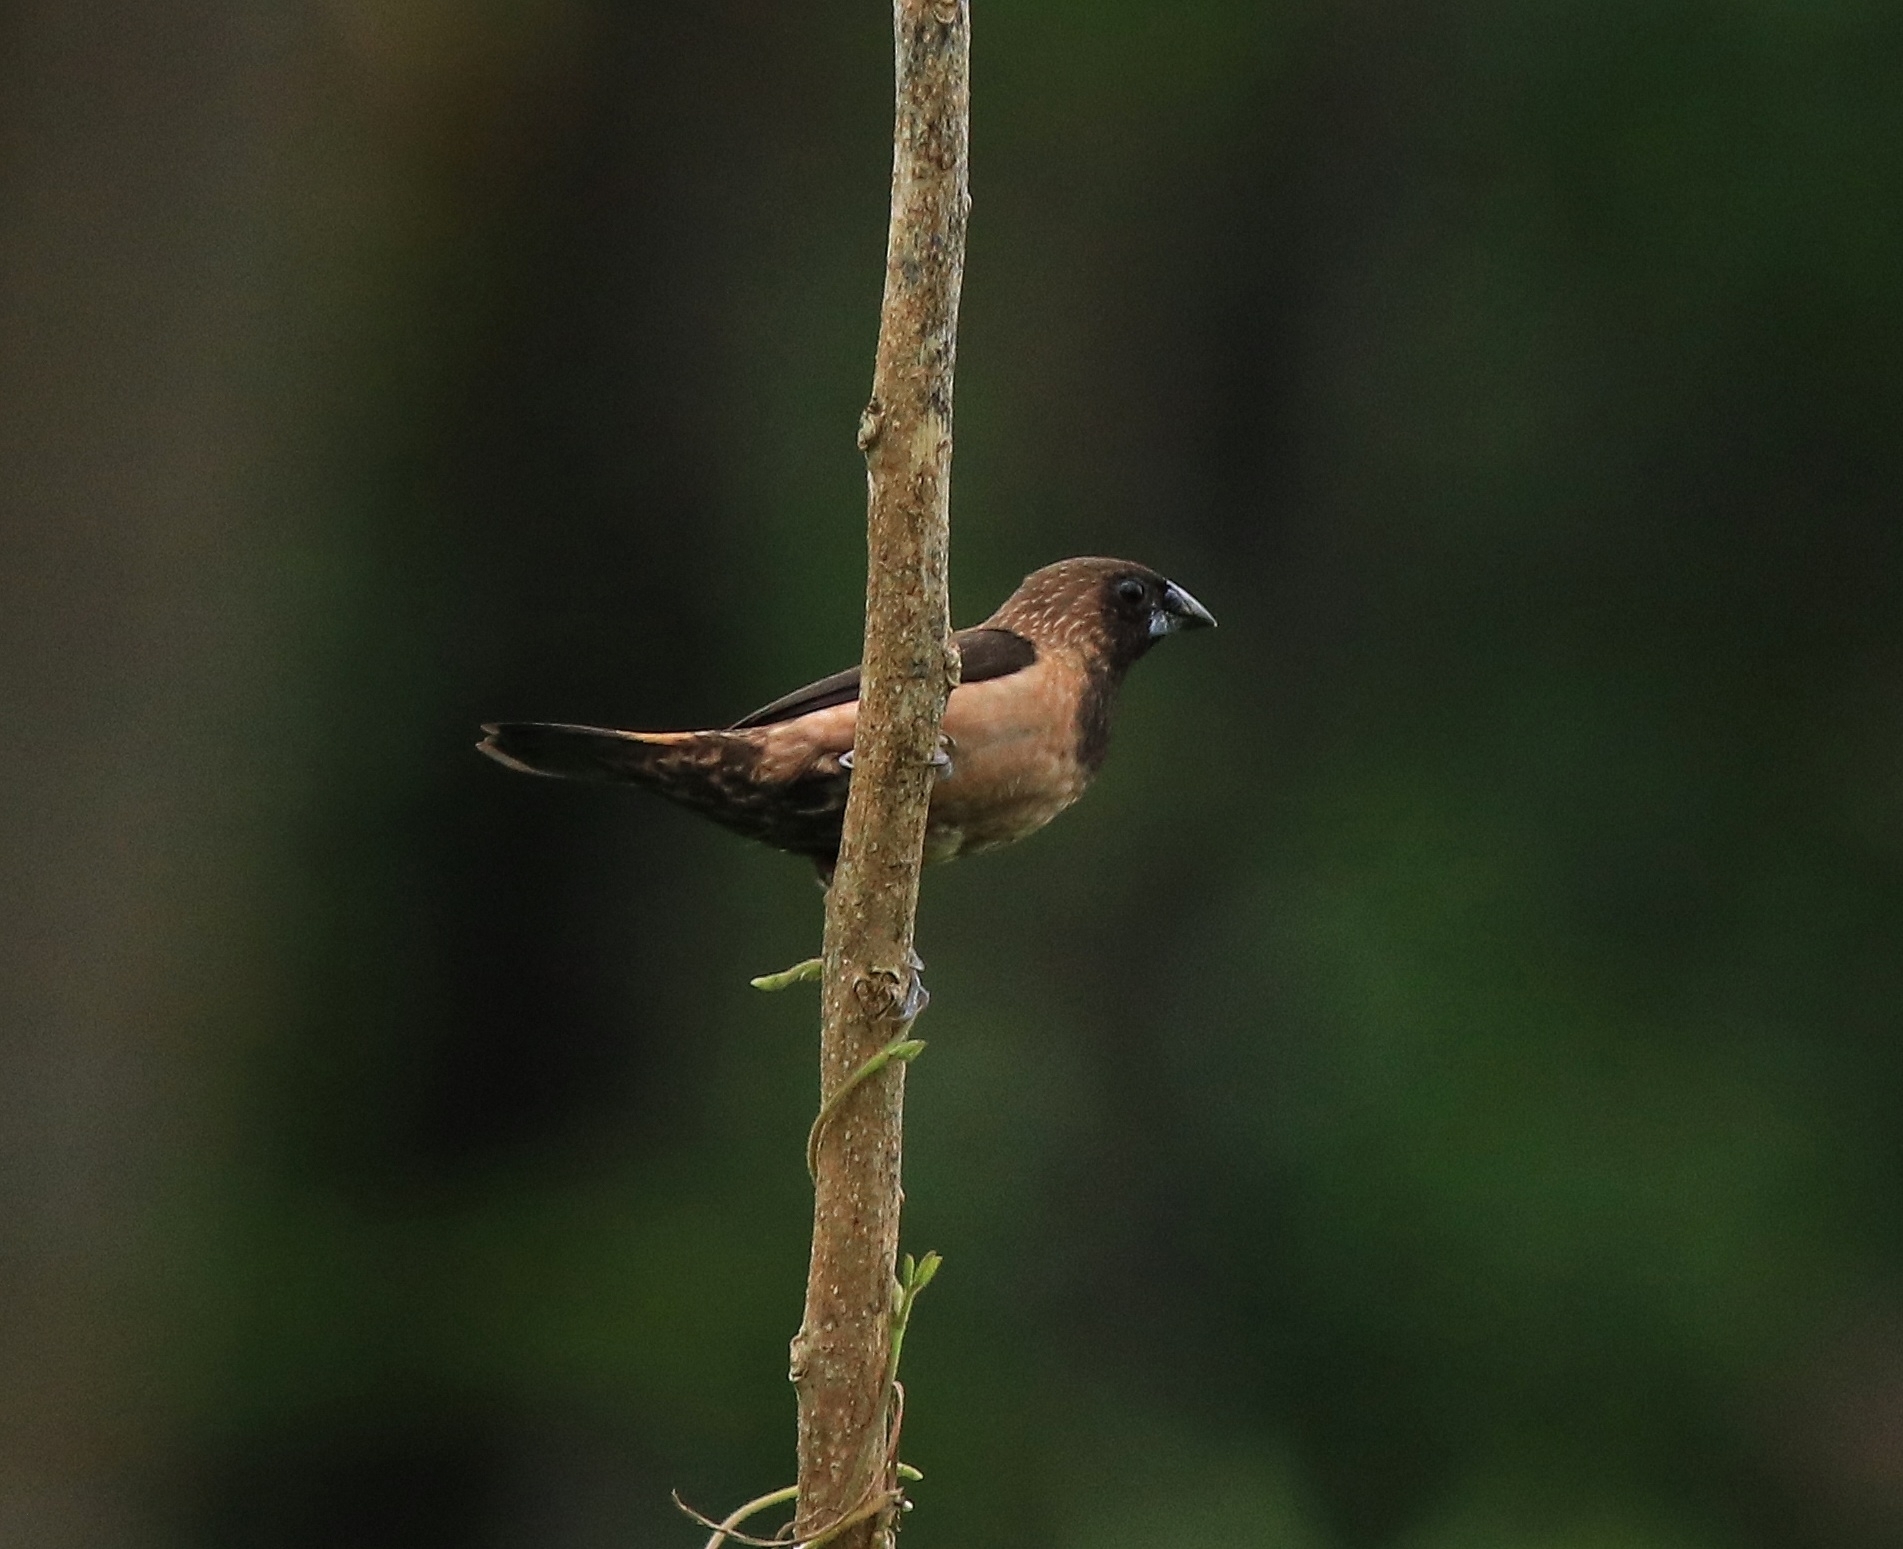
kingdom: Animalia
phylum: Chordata
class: Aves
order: Passeriformes
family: Estrildidae
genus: Lonchura
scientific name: Lonchura kelaarti
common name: Black-throated munia
